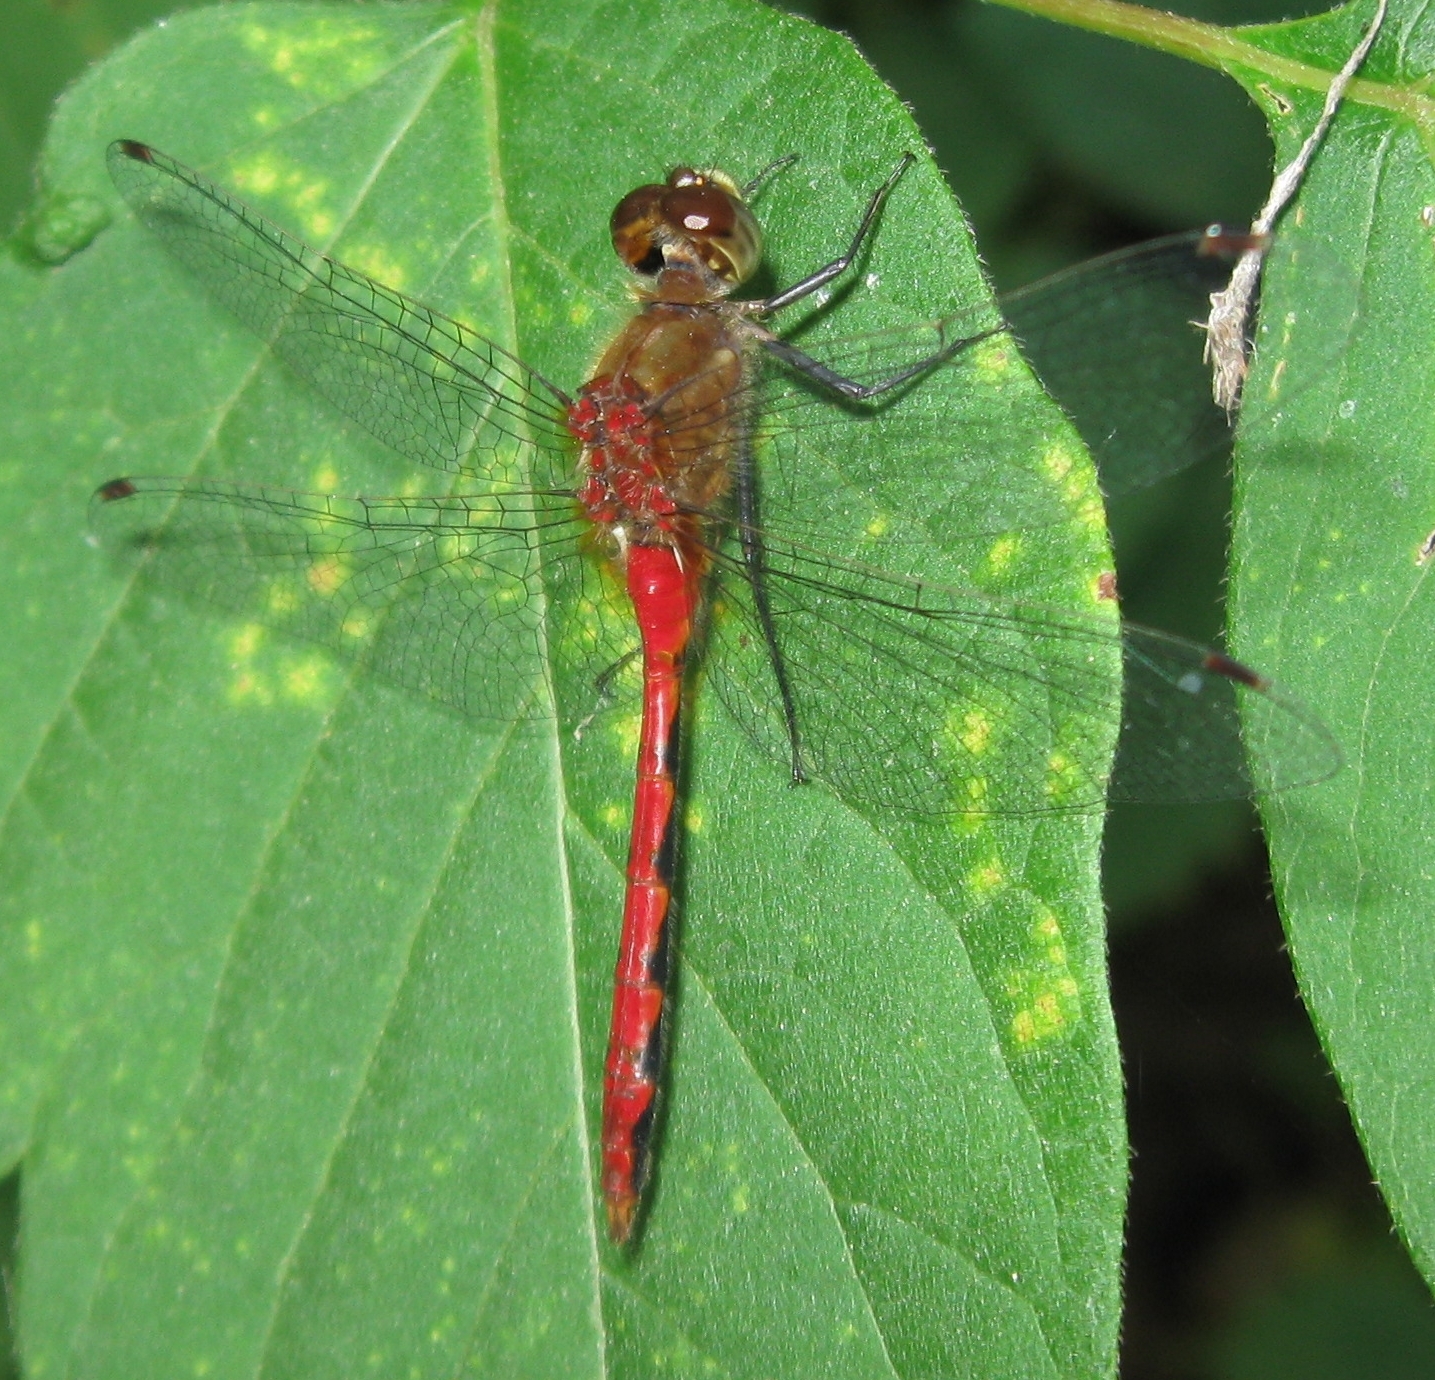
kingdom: Animalia
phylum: Arthropoda
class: Insecta
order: Odonata
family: Libellulidae
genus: Sympetrum
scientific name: Sympetrum obtrusum
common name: White-faced meadowhawk
